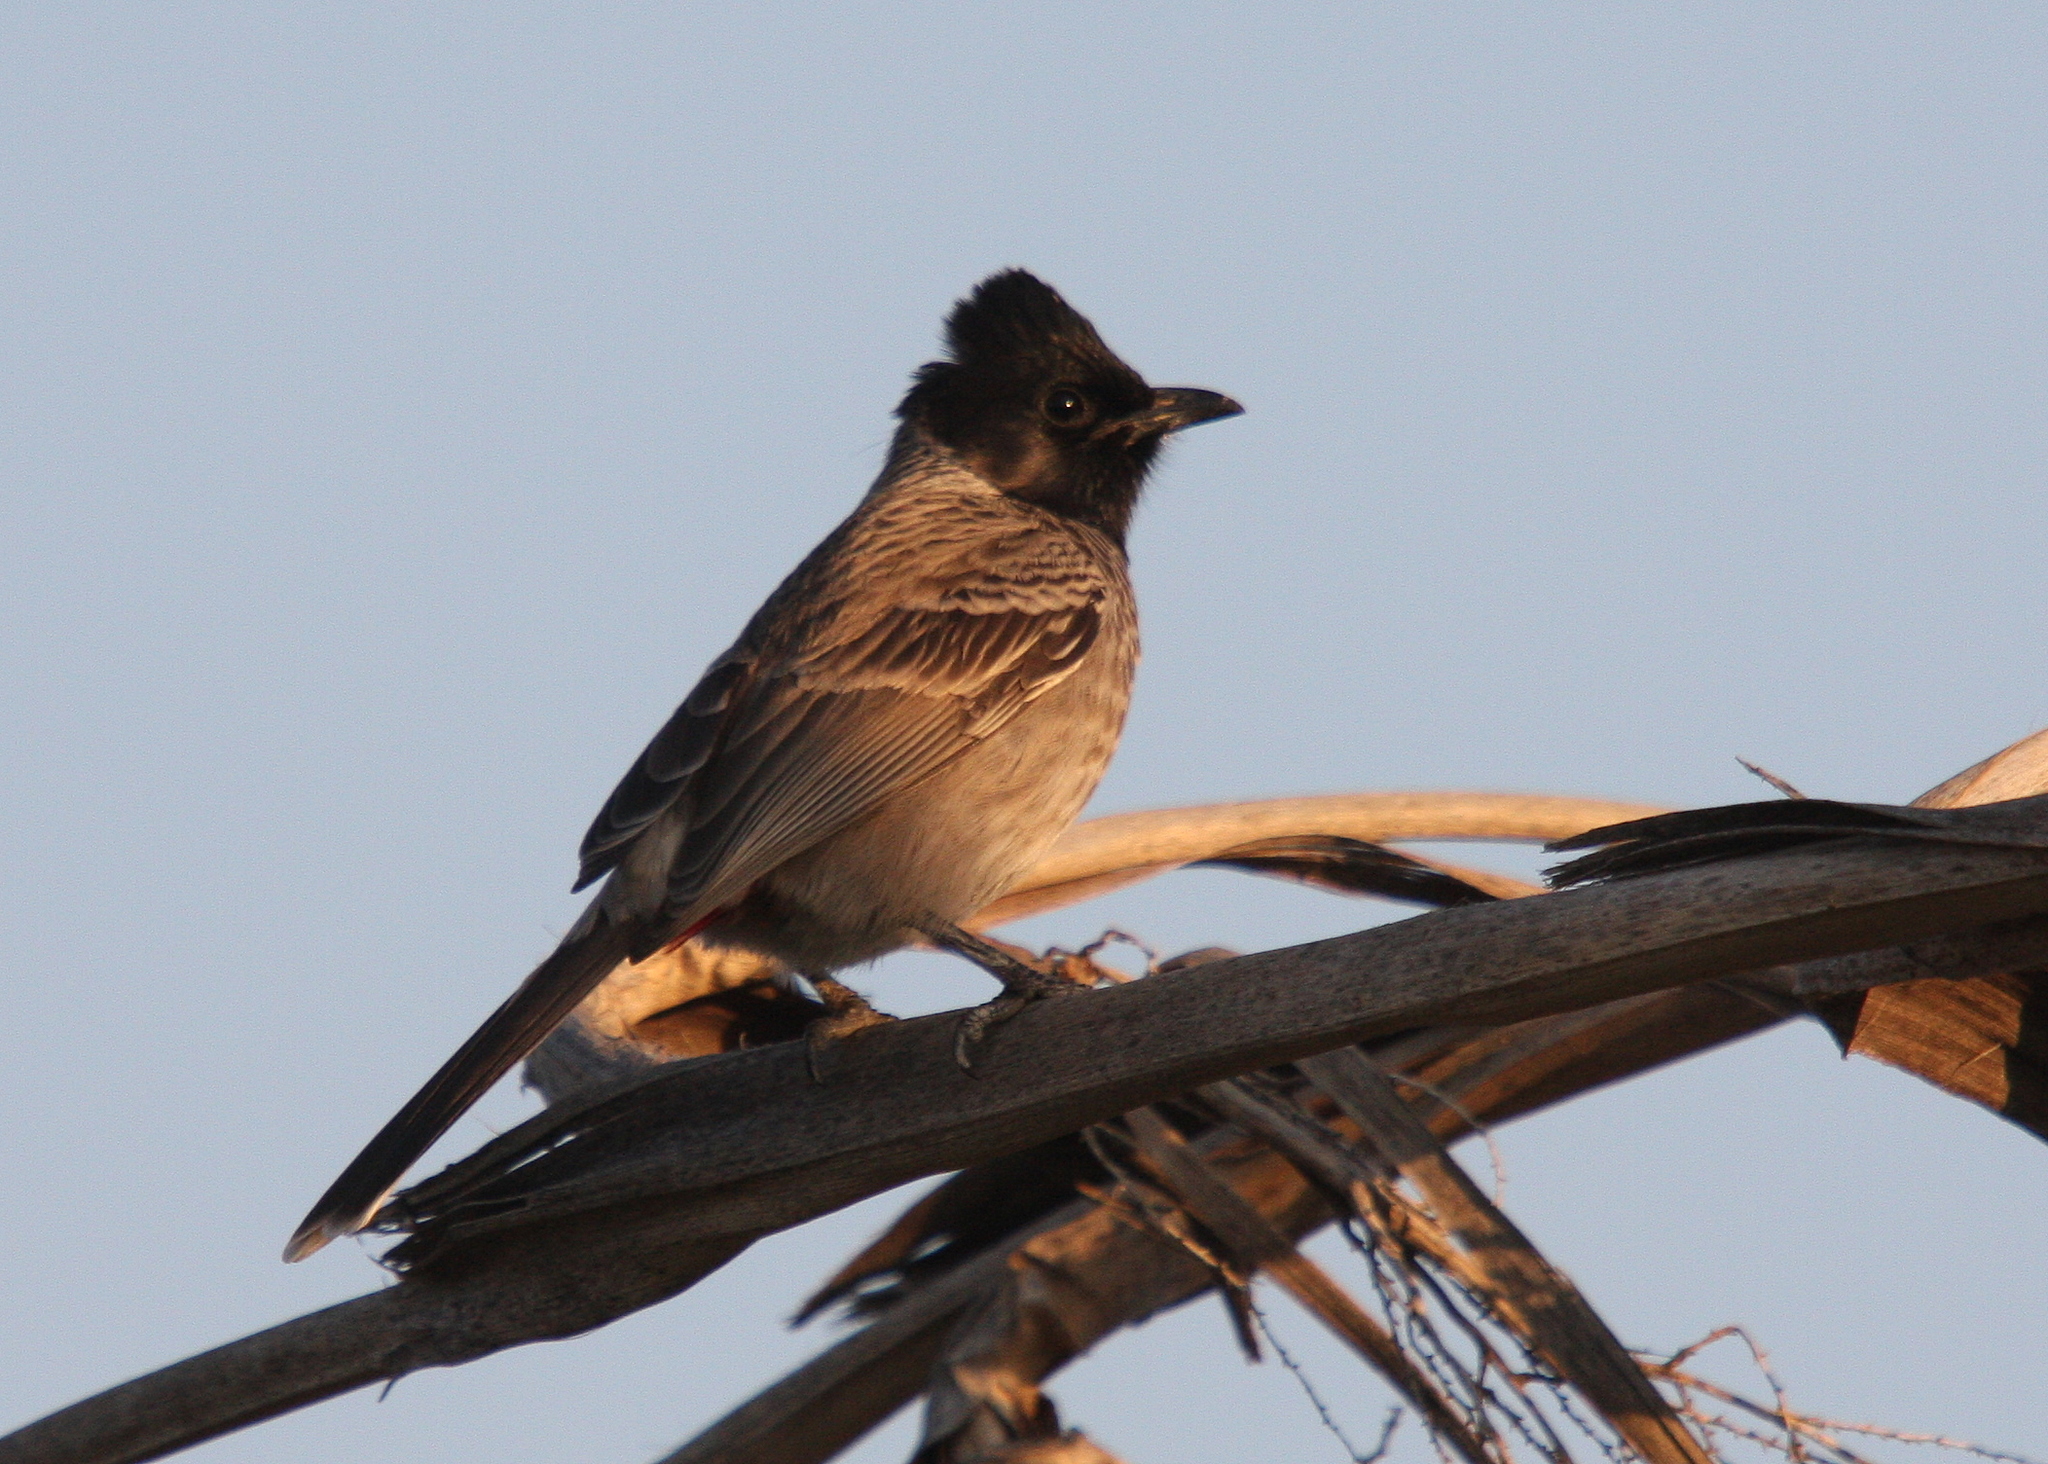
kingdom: Animalia
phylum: Chordata
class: Aves
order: Passeriformes
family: Pycnonotidae
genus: Pycnonotus
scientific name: Pycnonotus cafer
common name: Red-vented bulbul
